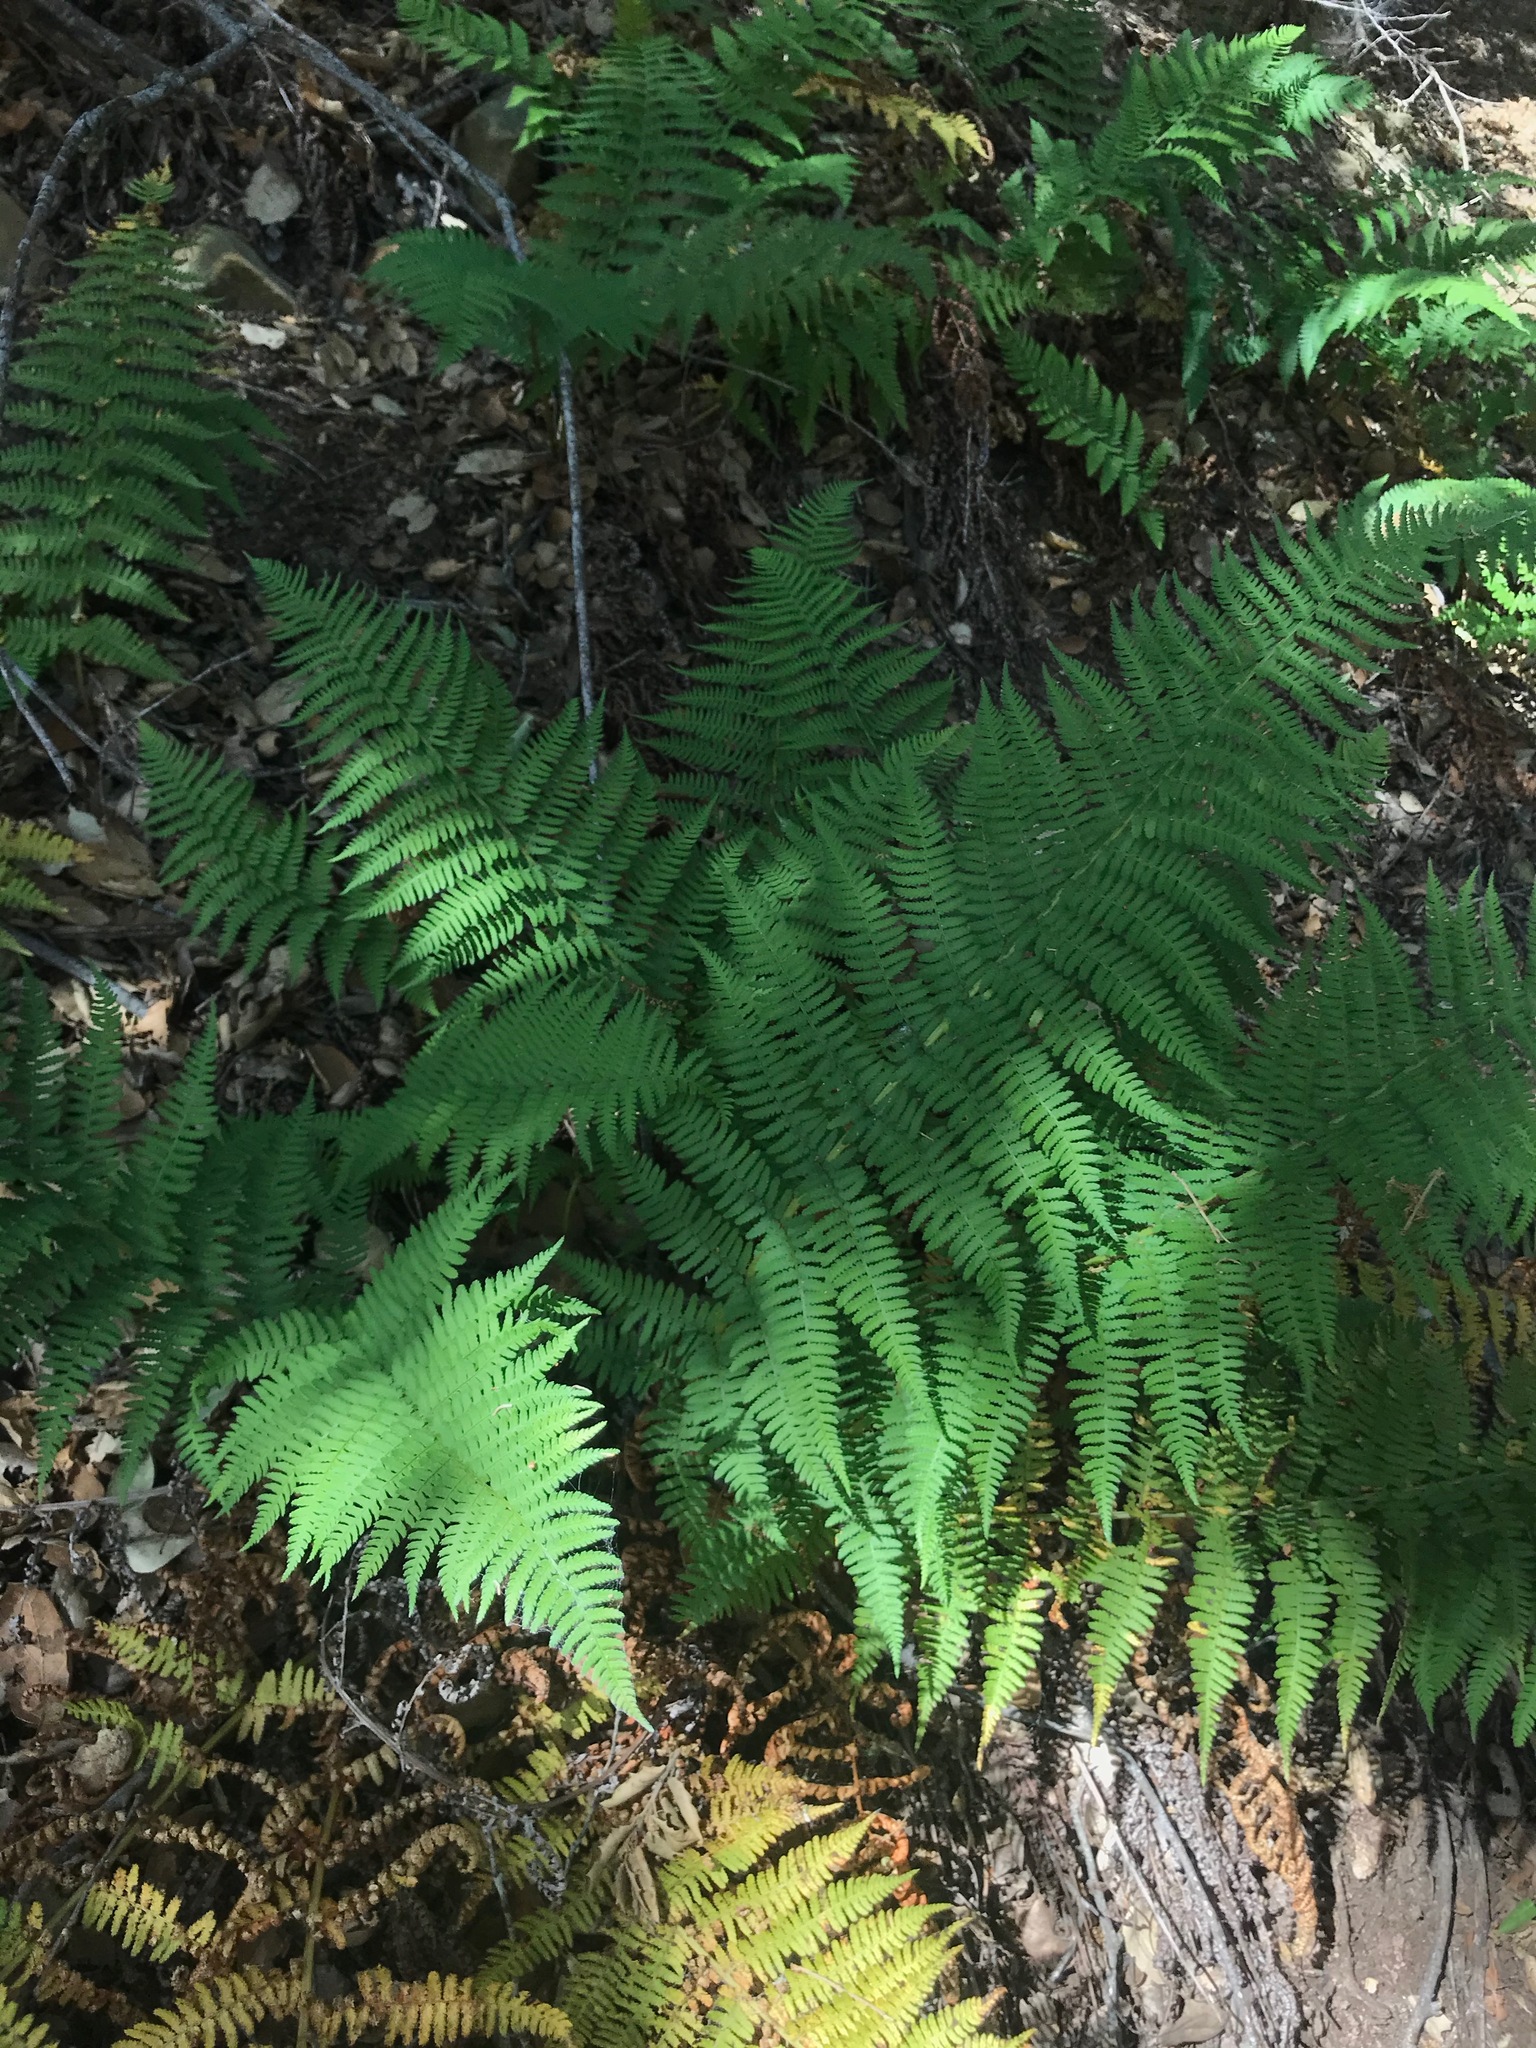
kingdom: Plantae
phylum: Tracheophyta
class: Polypodiopsida
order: Polypodiales
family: Dryopteridaceae
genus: Dryopteris
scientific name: Dryopteris arguta
